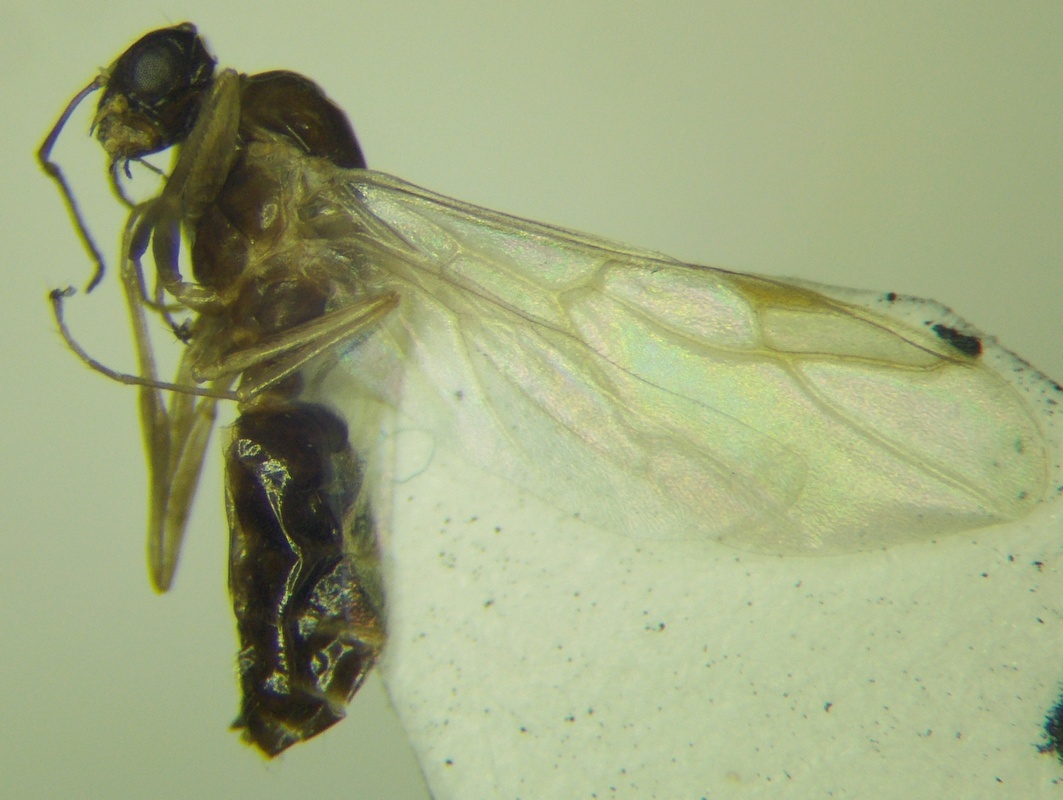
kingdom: Animalia
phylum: Arthropoda
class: Insecta
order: Hymenoptera
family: Formicidae
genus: Camponotus
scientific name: Camponotus truncatus
